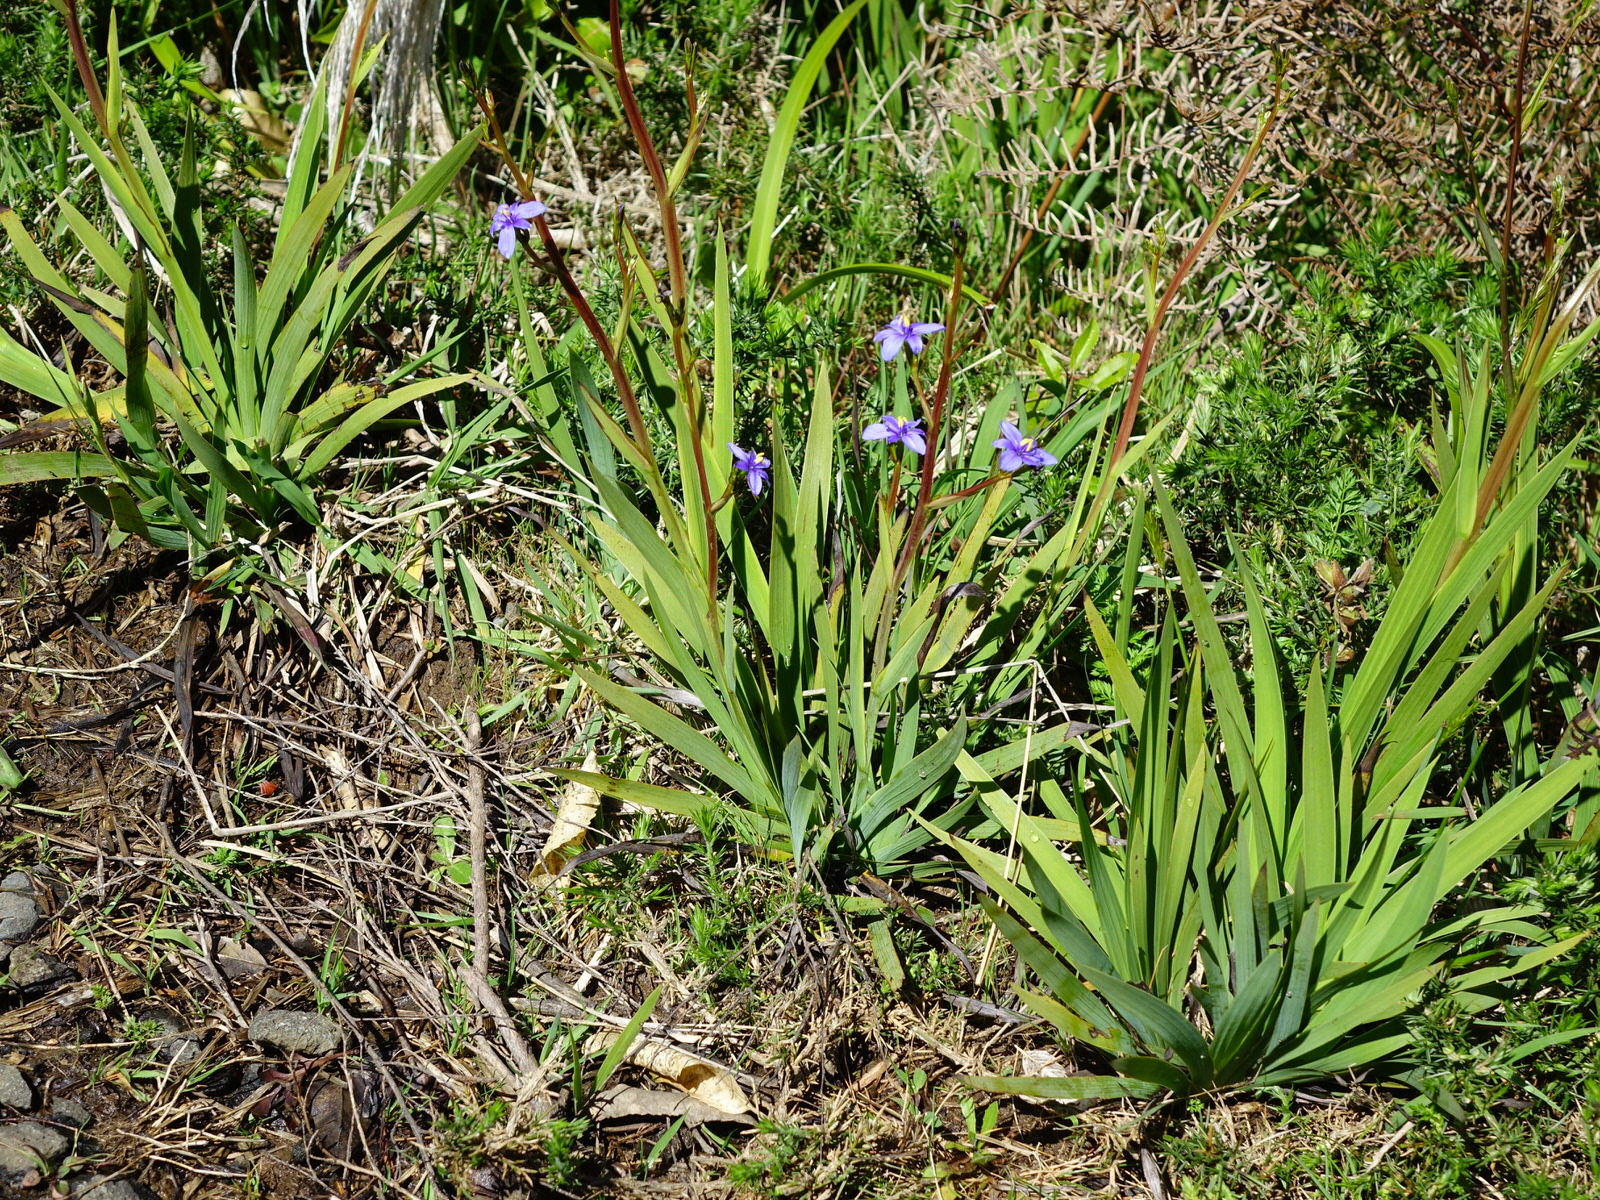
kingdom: Plantae
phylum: Tracheophyta
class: Liliopsida
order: Asparagales
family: Iridaceae
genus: Aristea
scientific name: Aristea ecklonii
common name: Blue corn-lily
